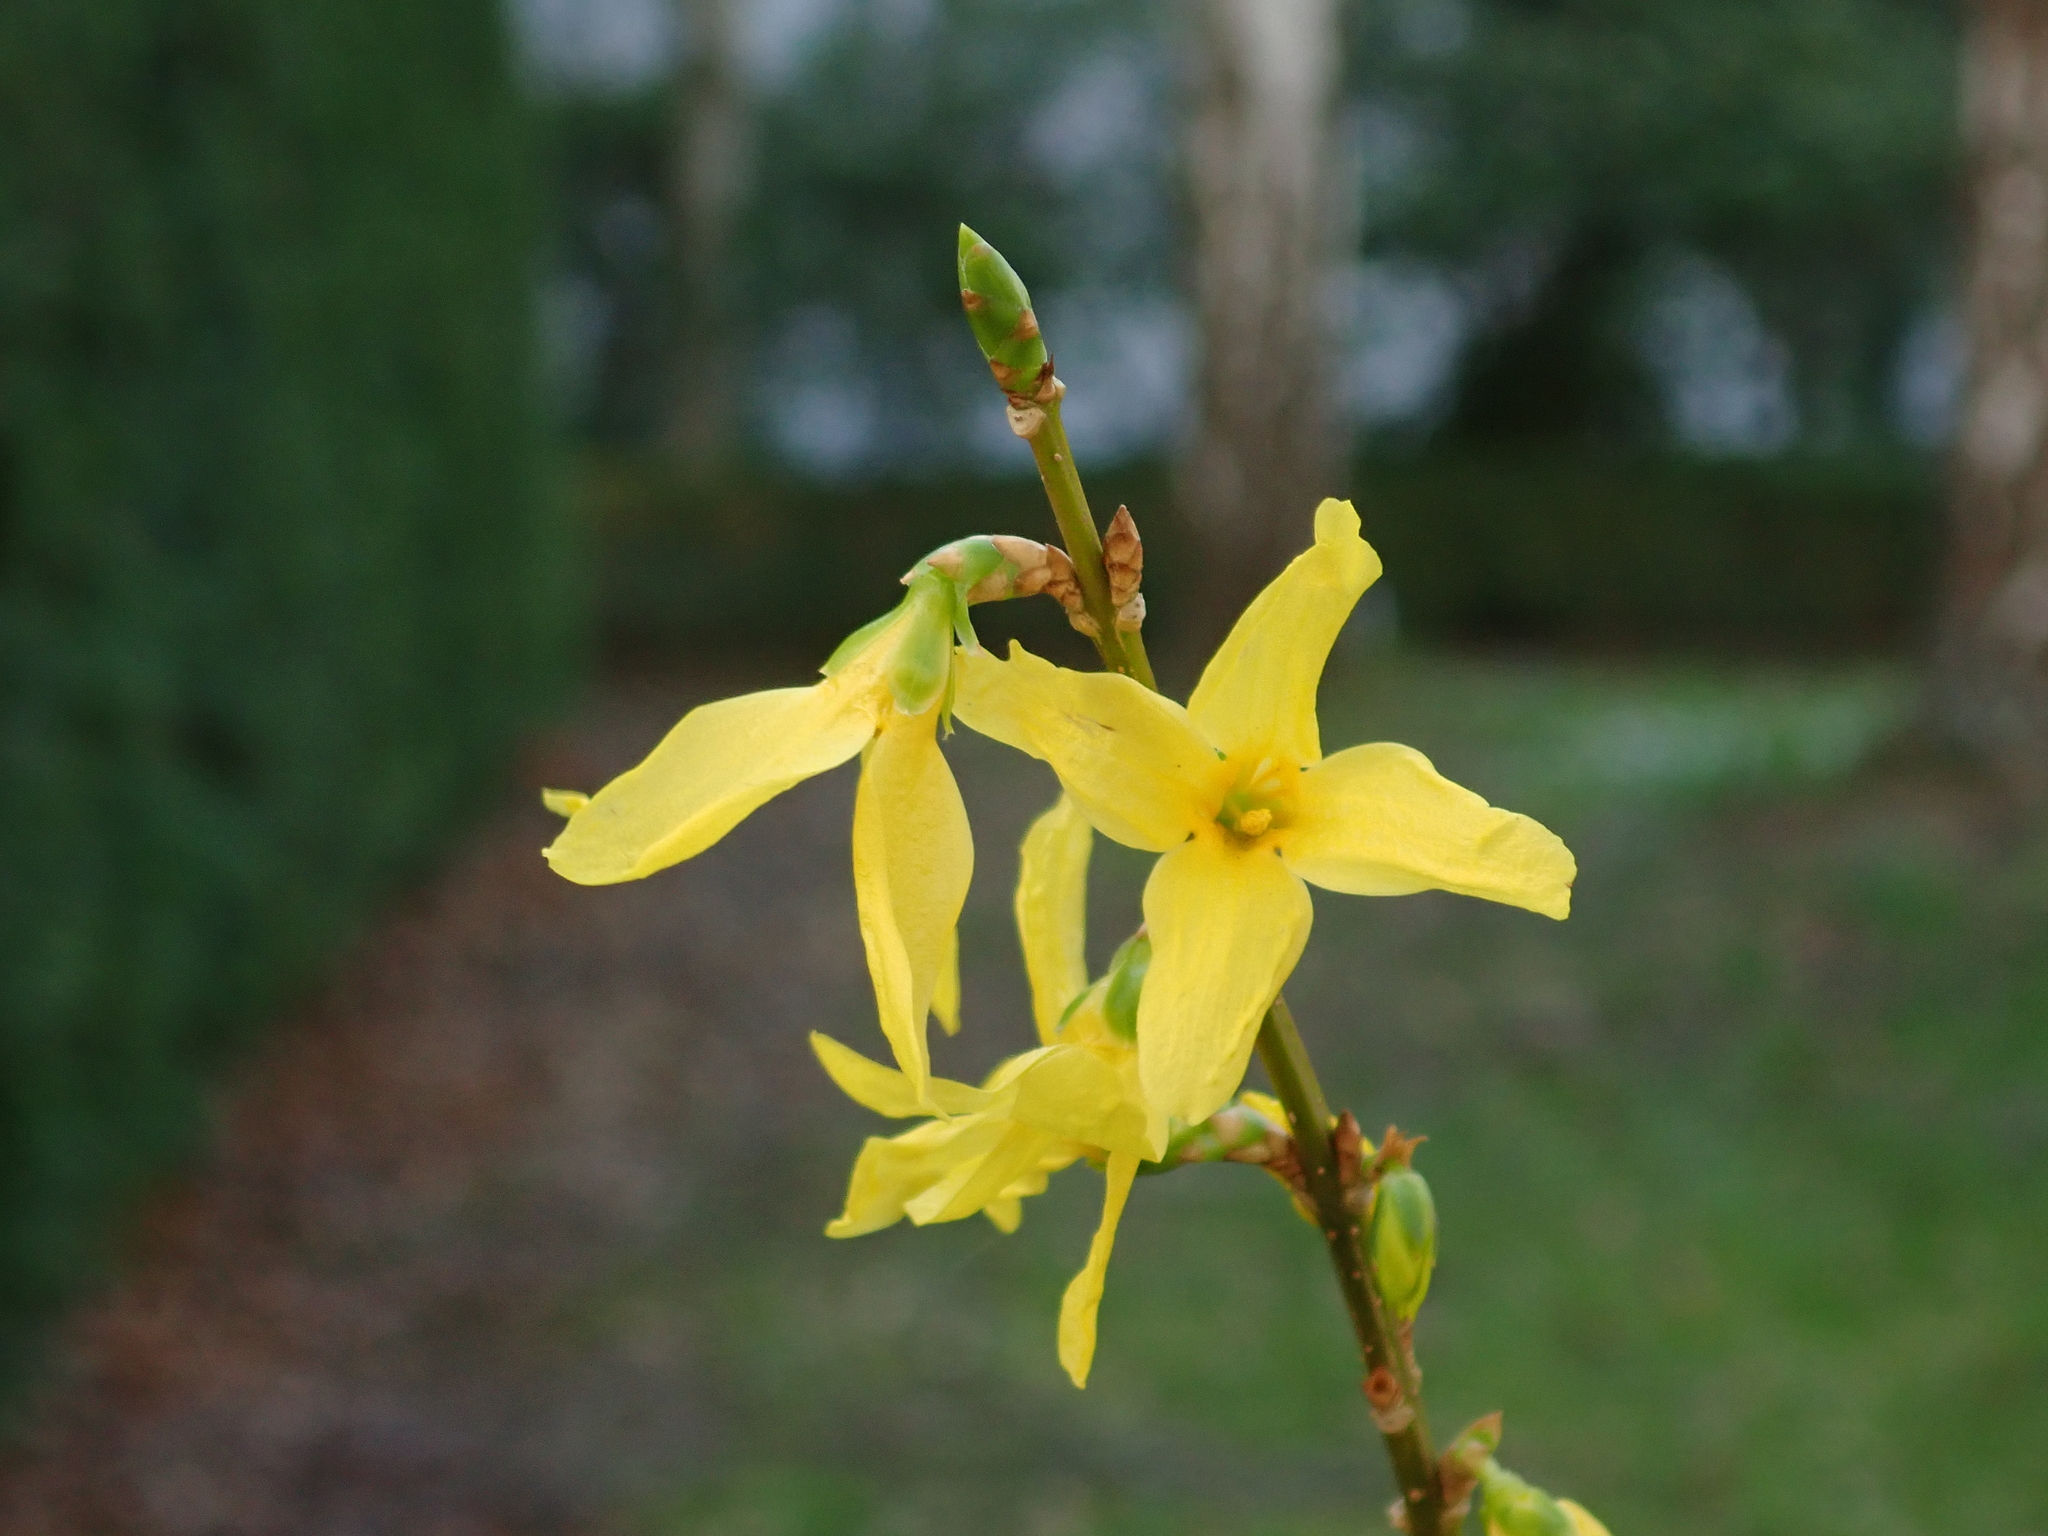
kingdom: Plantae
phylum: Tracheophyta
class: Magnoliopsida
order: Lamiales
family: Oleaceae
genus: Forsythia
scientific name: Forsythia intermedia
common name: Forsythia
